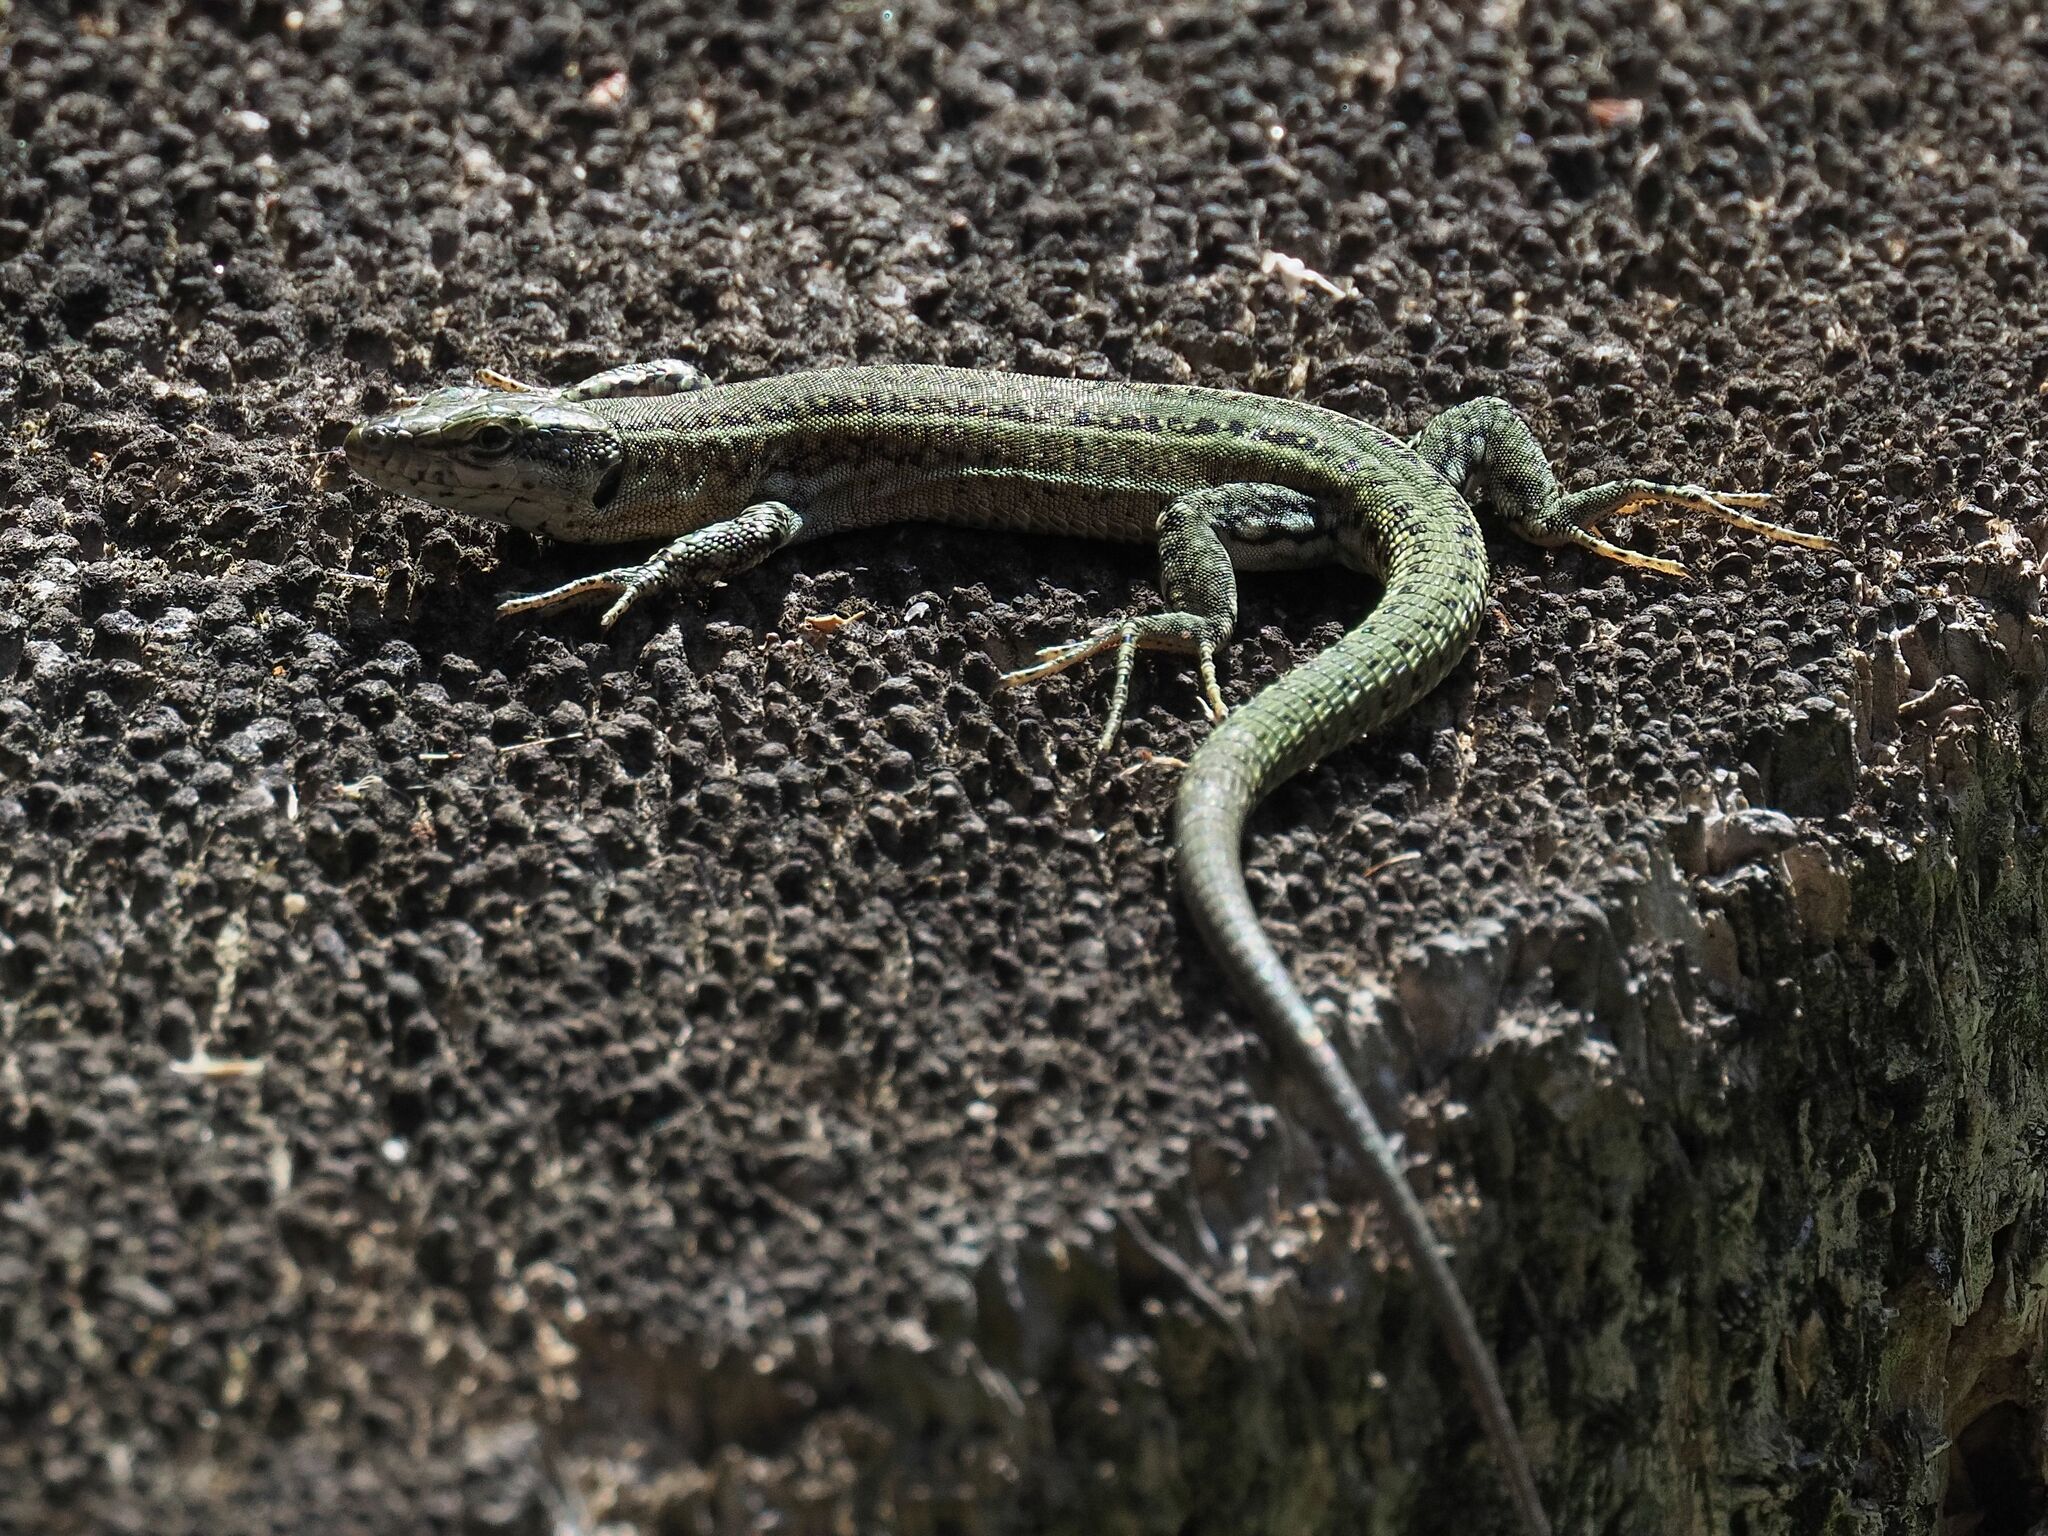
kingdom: Animalia
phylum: Chordata
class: Squamata
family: Lacertidae
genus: Podarcis
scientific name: Podarcis virescens
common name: Geniez’s wall lizard
